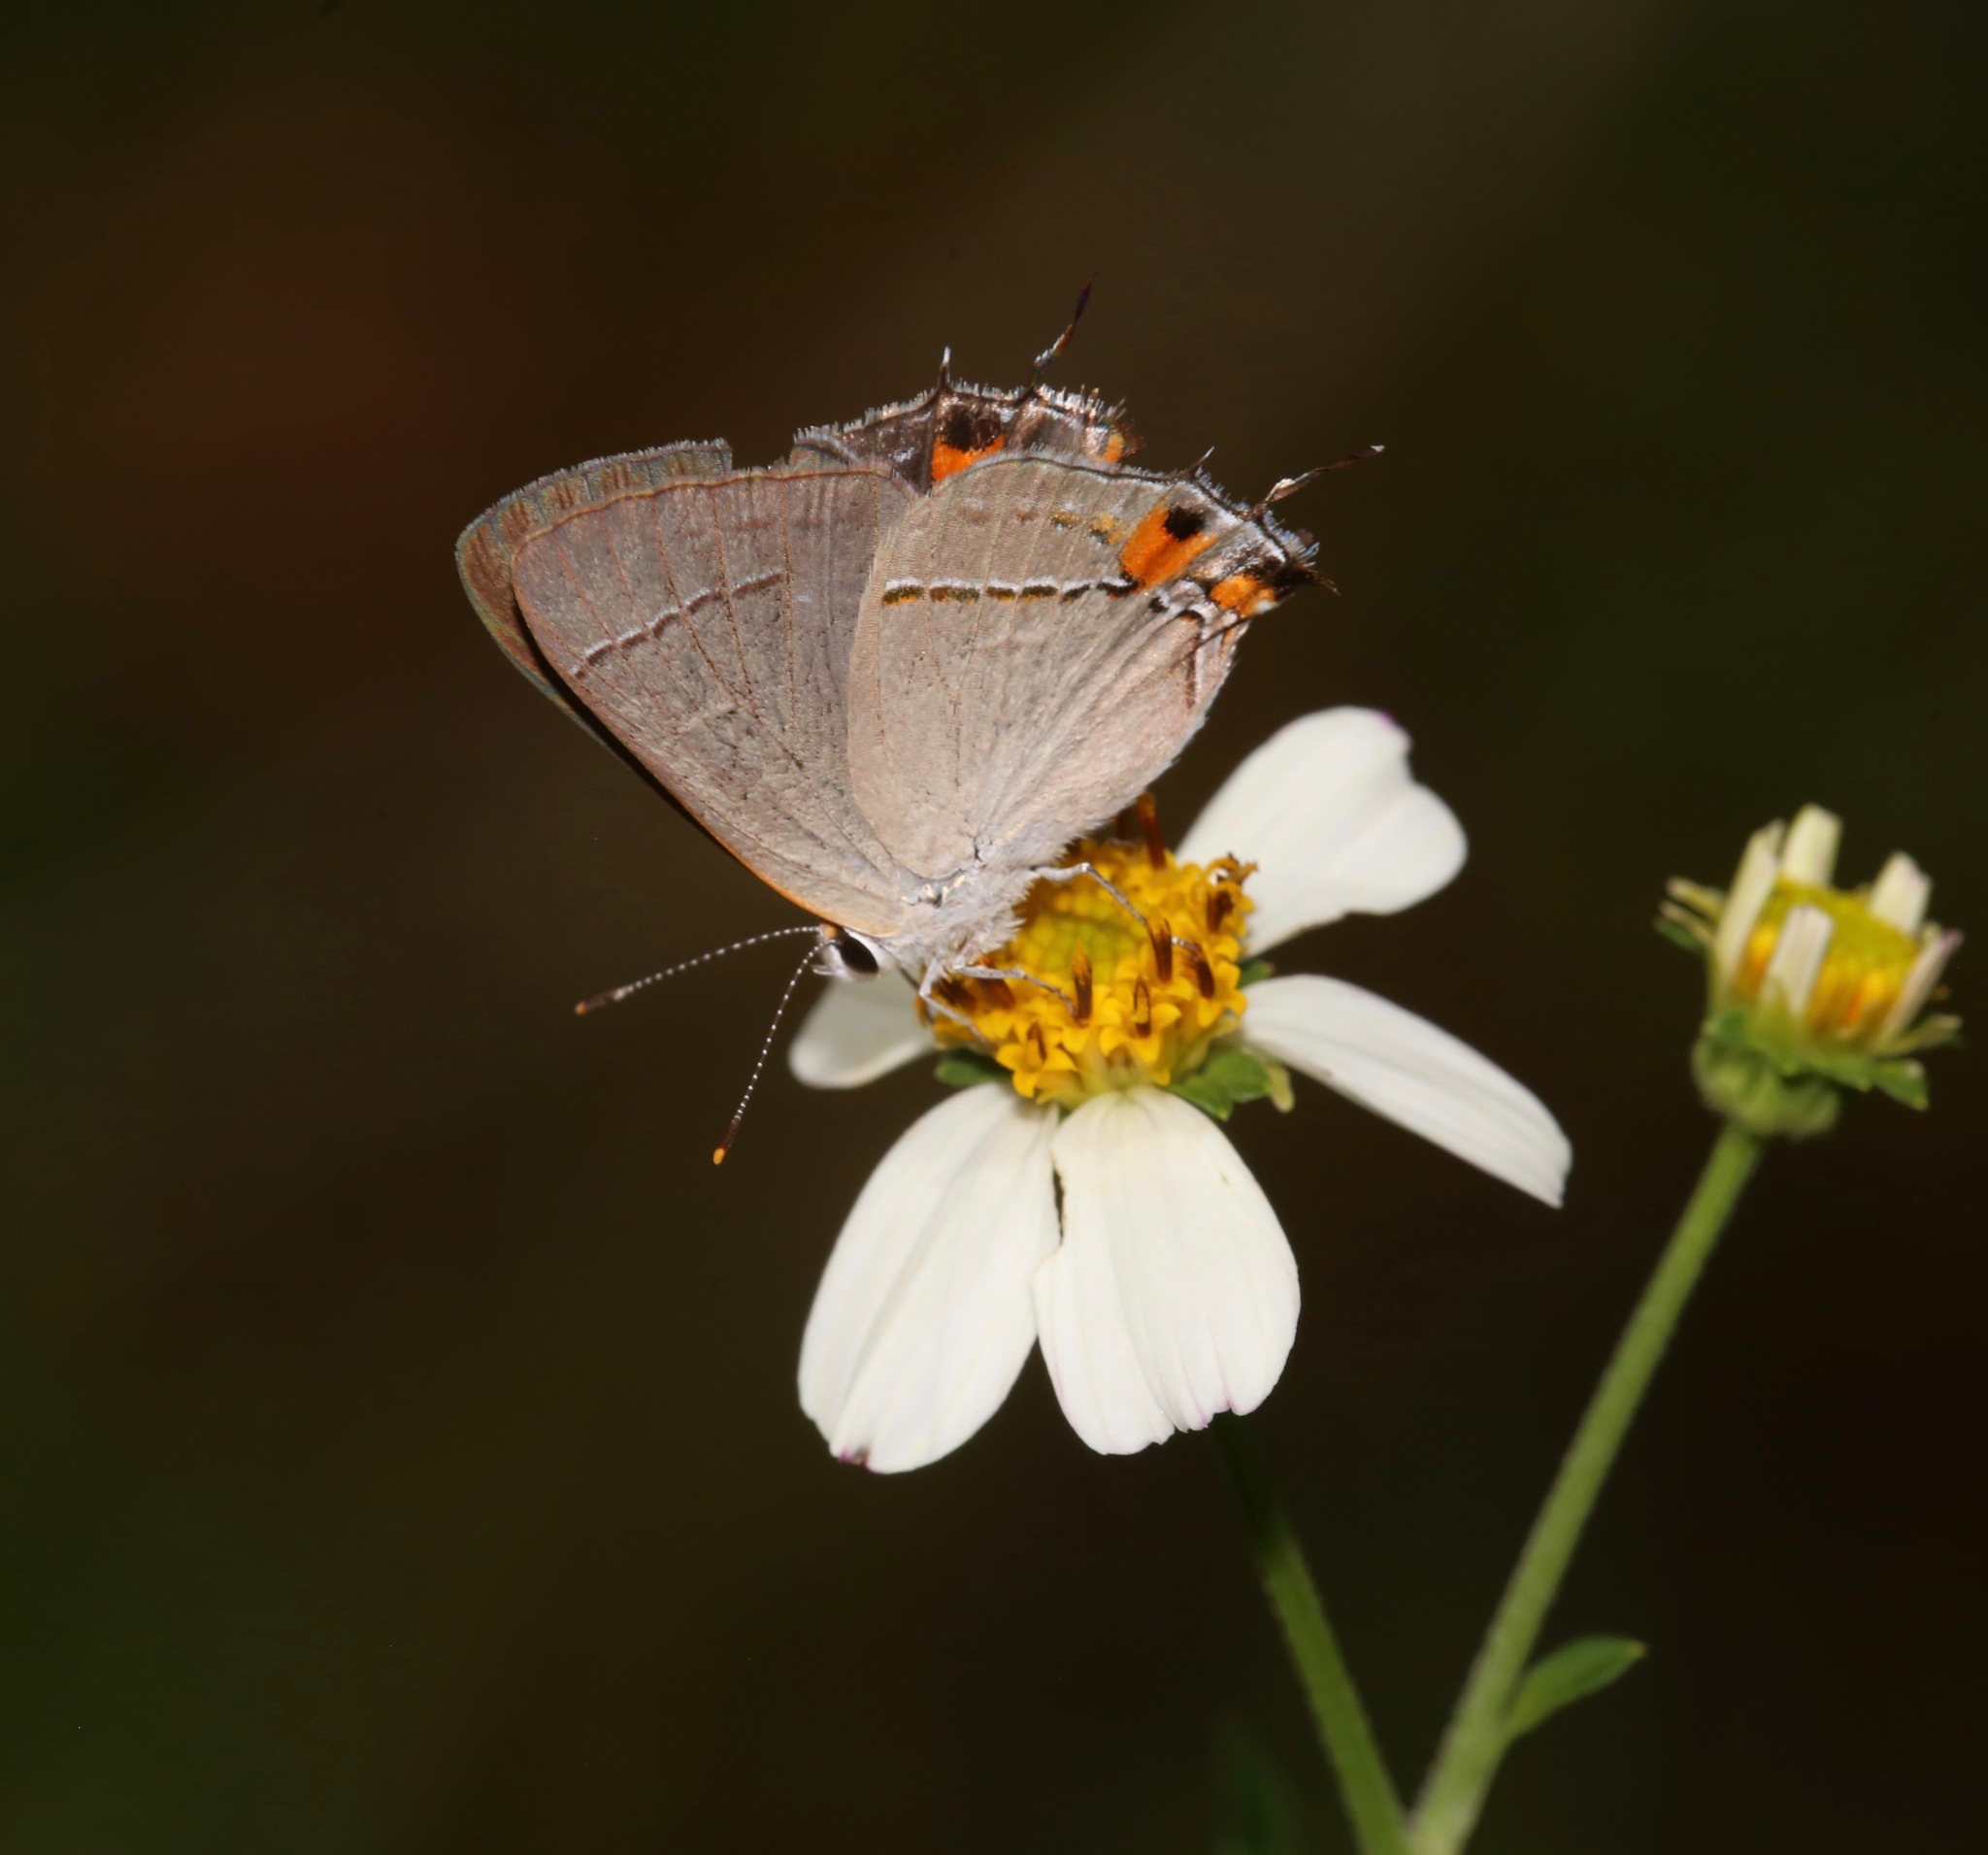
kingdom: Animalia
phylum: Arthropoda
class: Insecta
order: Lepidoptera
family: Lycaenidae
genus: Strymon
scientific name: Strymon melinus
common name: Gray hairstreak
